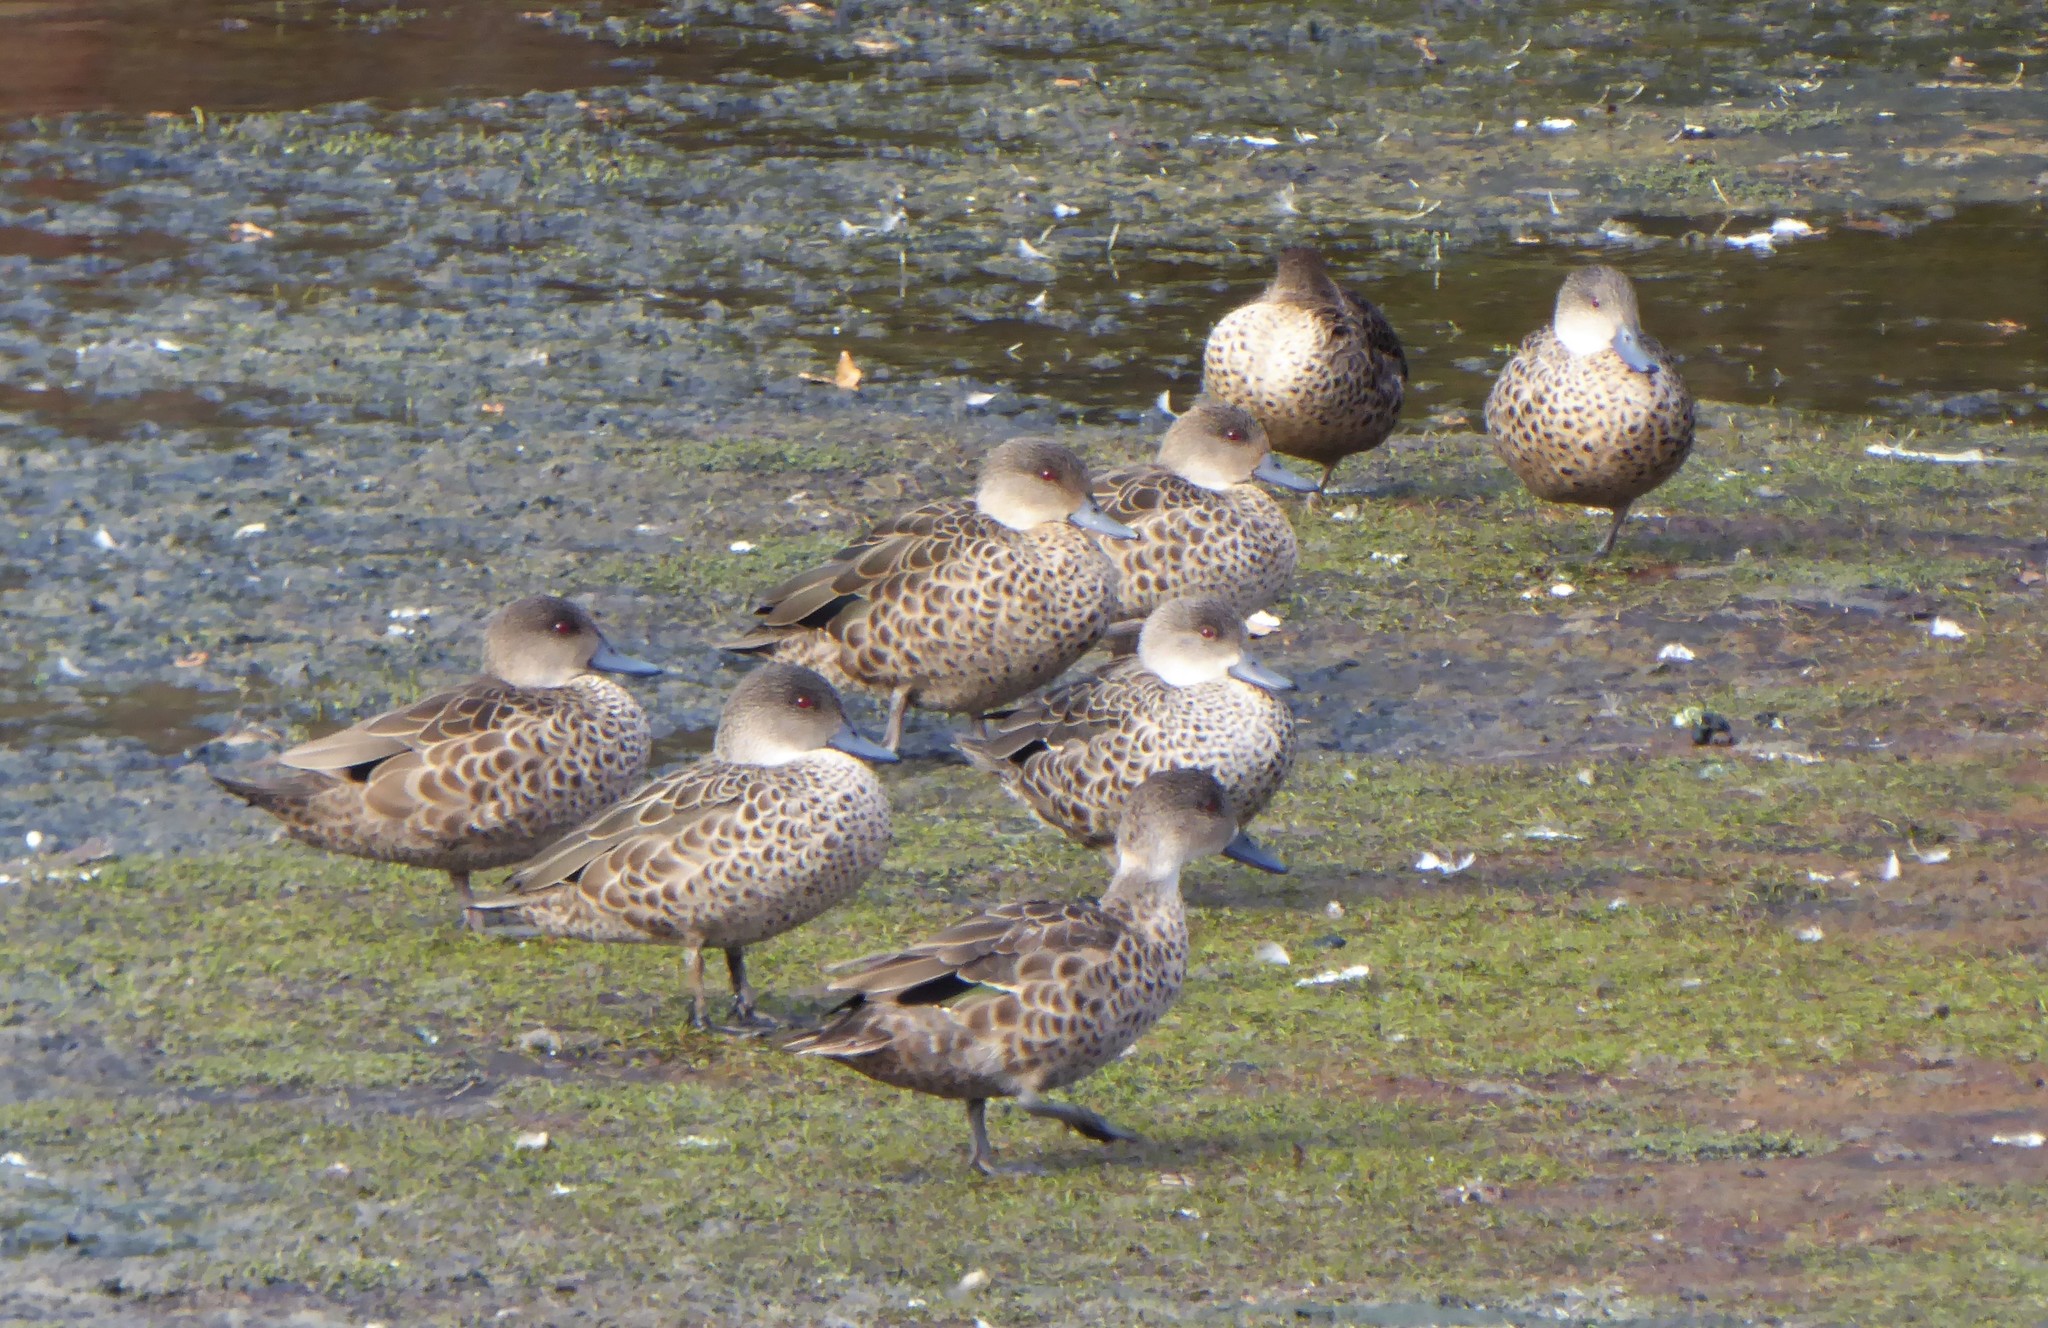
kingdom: Animalia
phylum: Chordata
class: Aves
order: Anseriformes
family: Anatidae
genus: Anas
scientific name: Anas gracilis
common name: Grey teal
